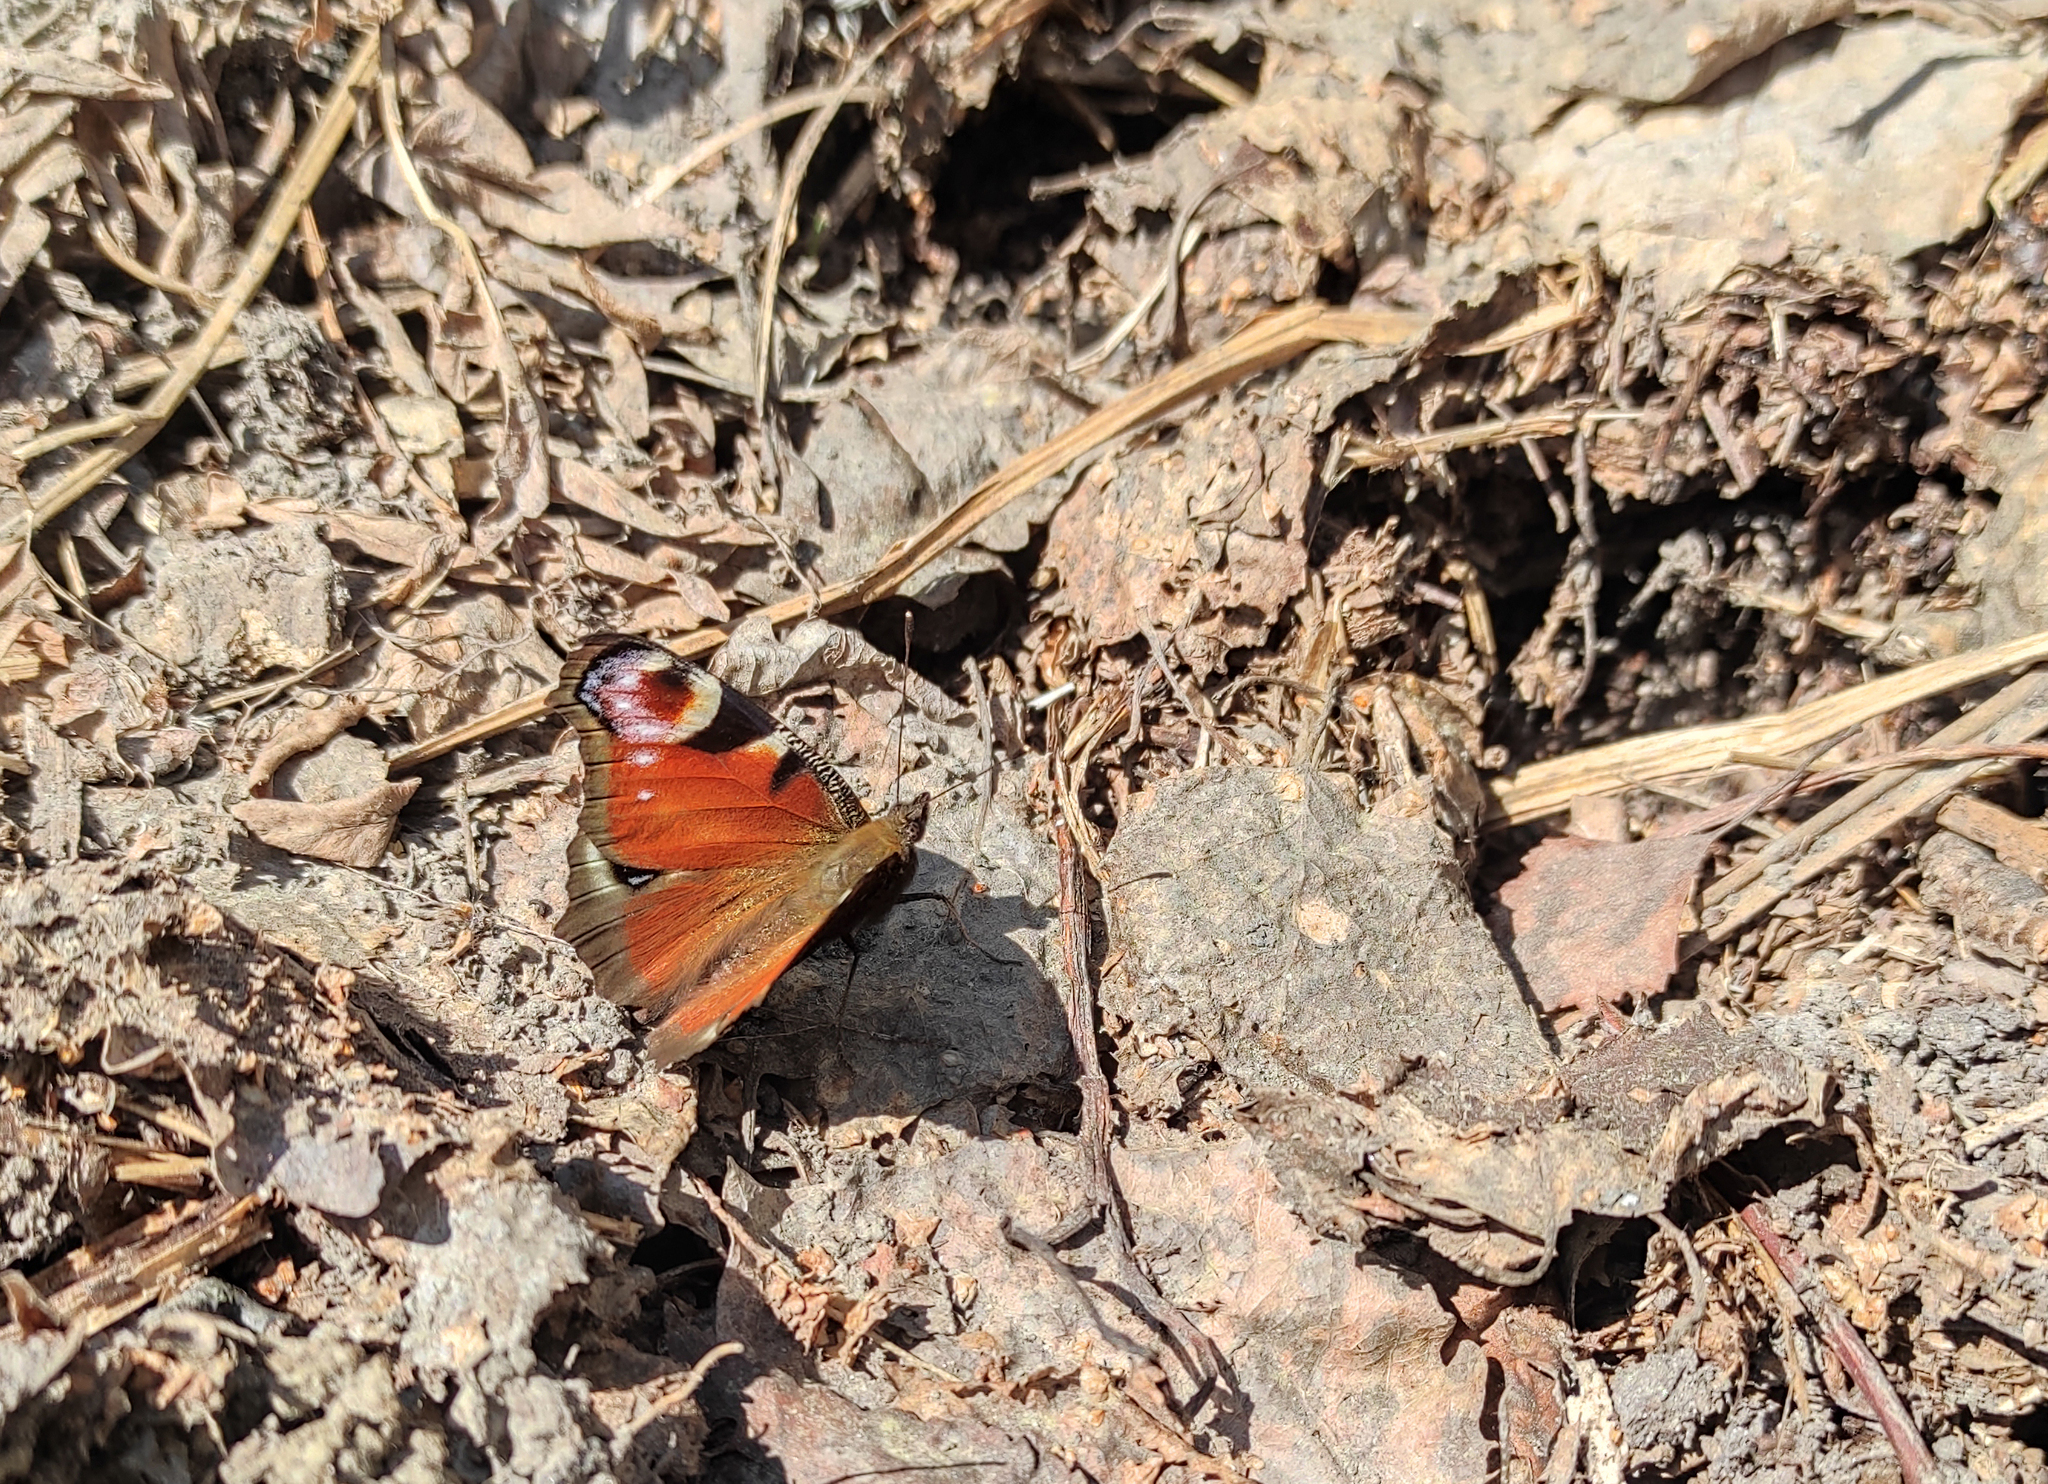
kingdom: Animalia
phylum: Arthropoda
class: Insecta
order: Lepidoptera
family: Nymphalidae
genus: Aglais
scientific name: Aglais io
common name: Peacock
